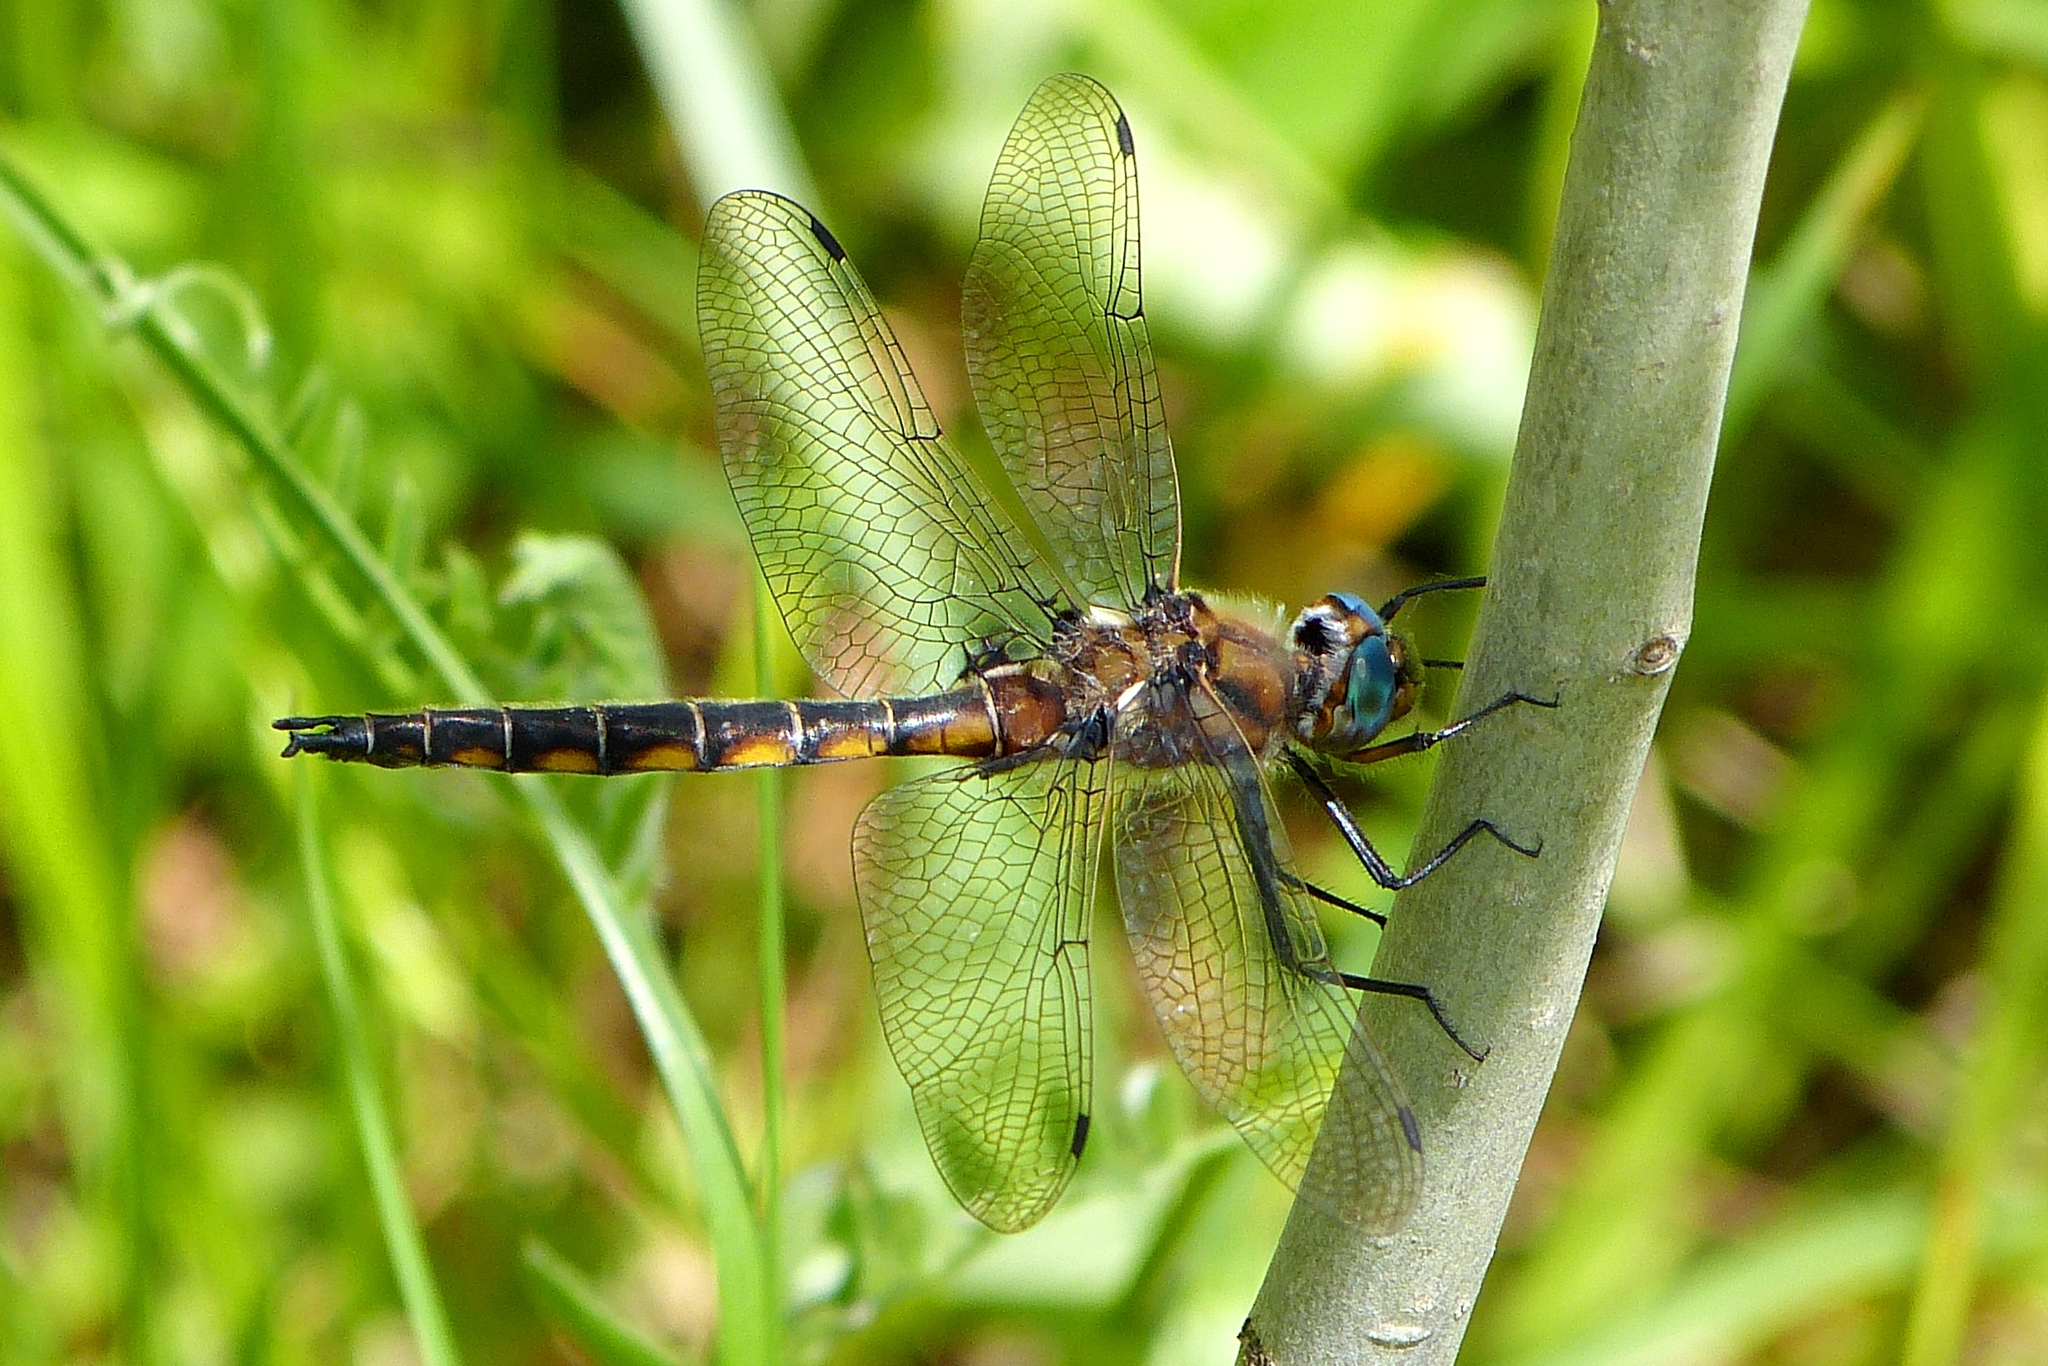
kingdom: Animalia
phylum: Arthropoda
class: Insecta
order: Odonata
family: Corduliidae
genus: Epitheca
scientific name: Epitheca canis
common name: Beaverpond baskettail
